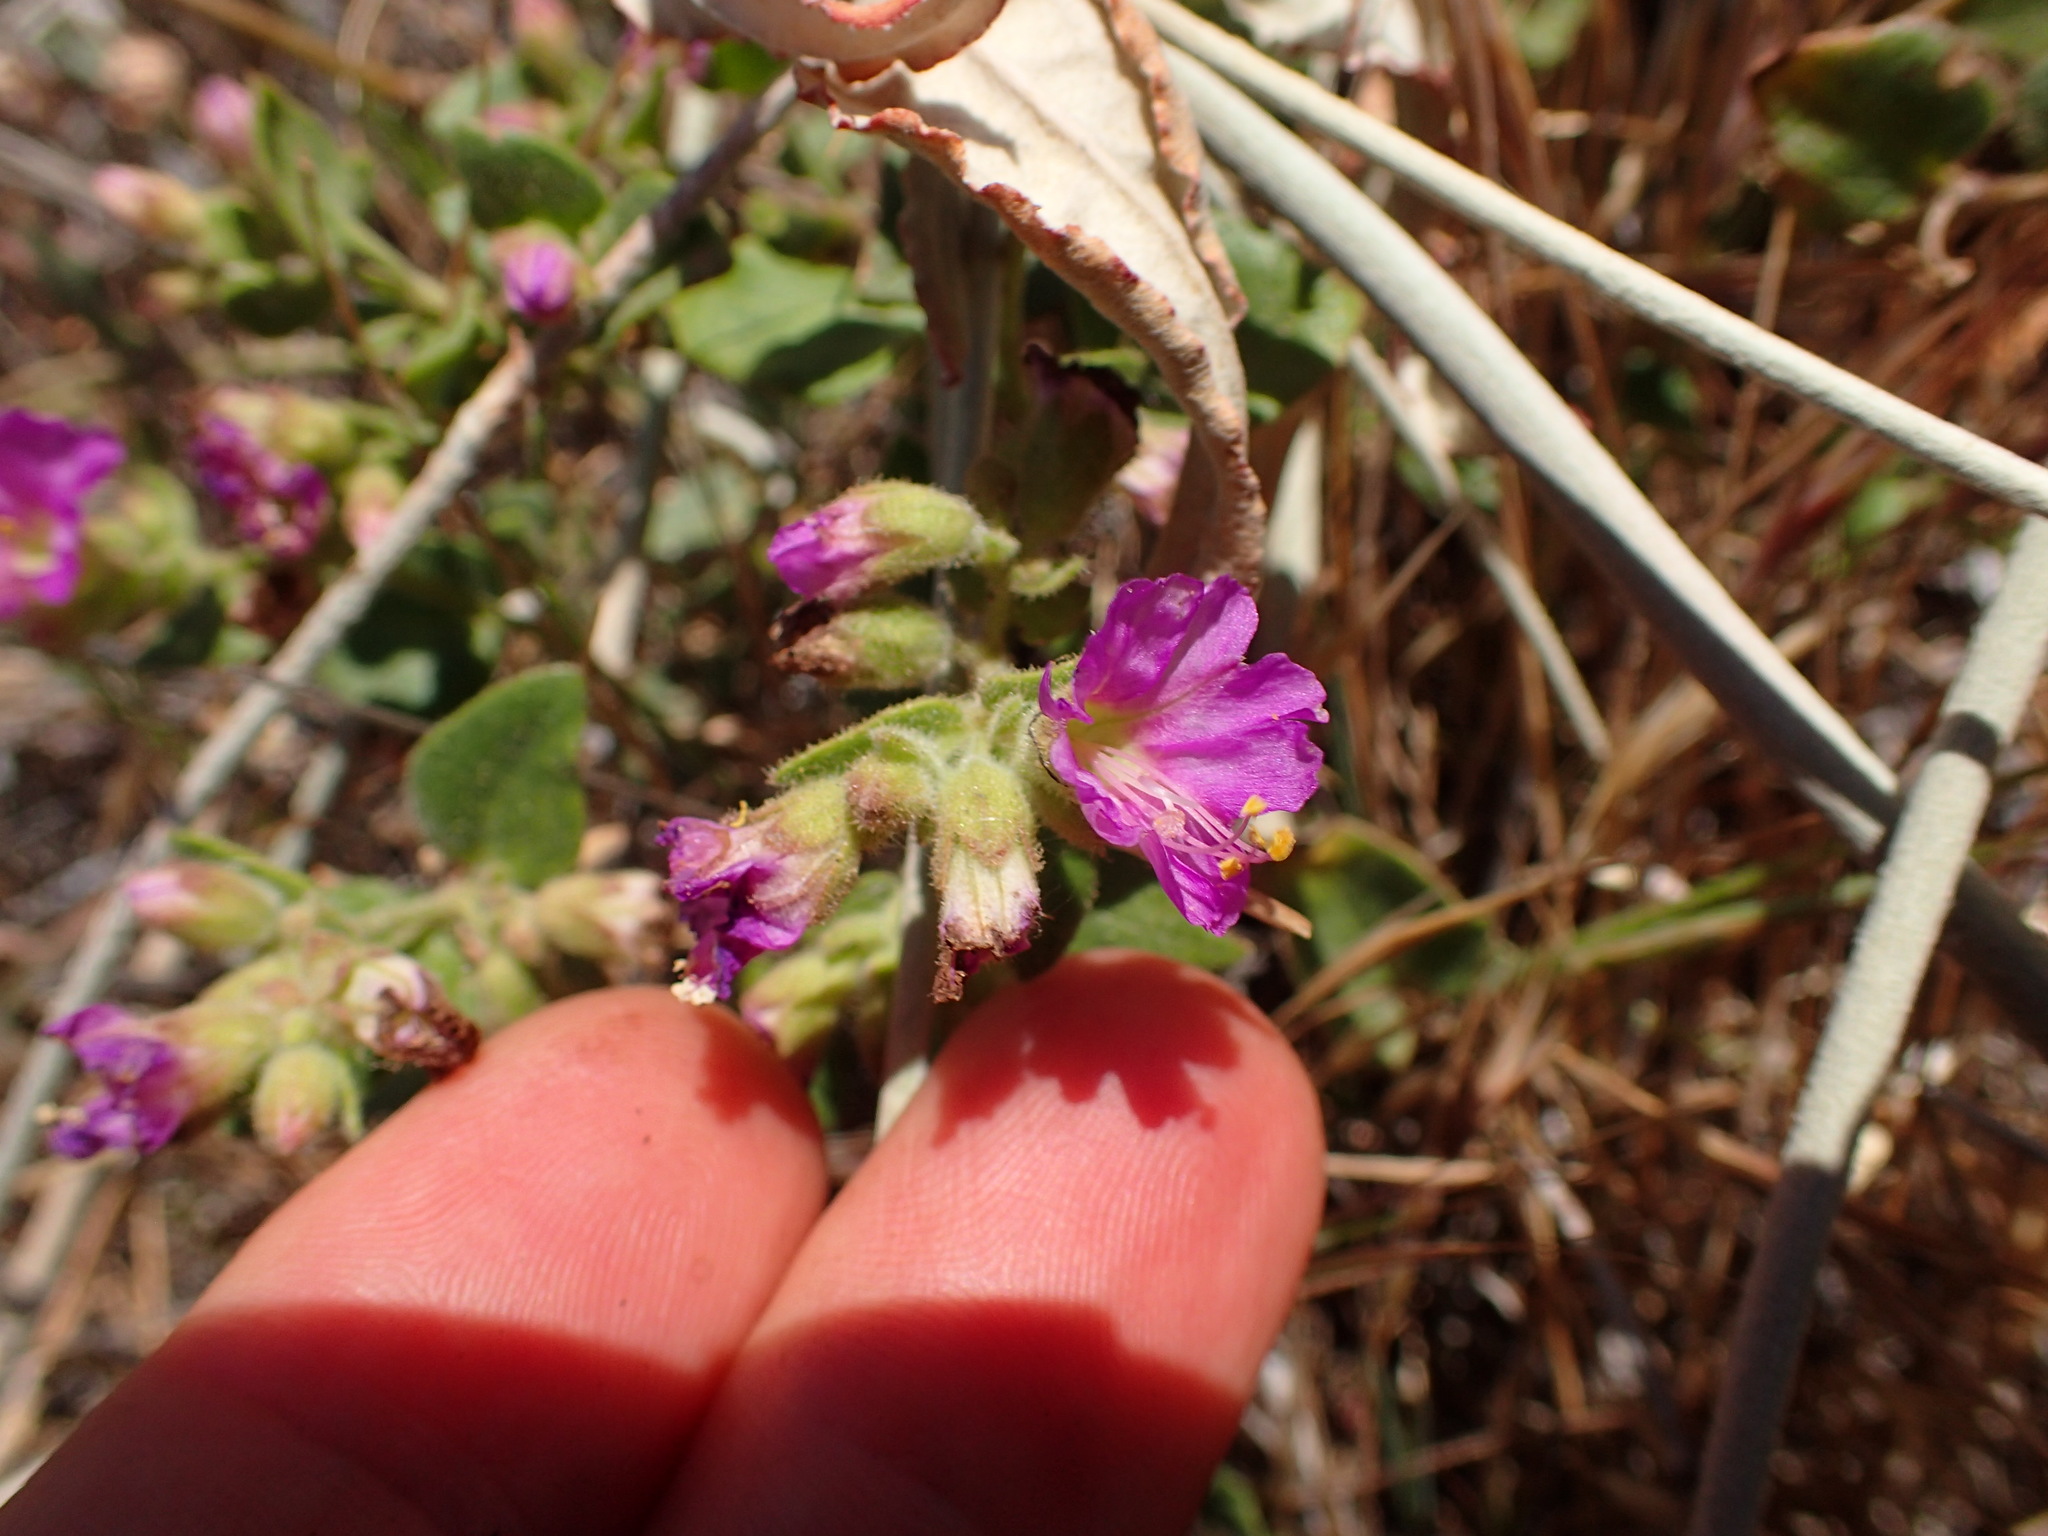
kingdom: Plantae
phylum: Tracheophyta
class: Magnoliopsida
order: Caryophyllales
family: Nyctaginaceae
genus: Mirabilis
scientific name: Mirabilis laevis
